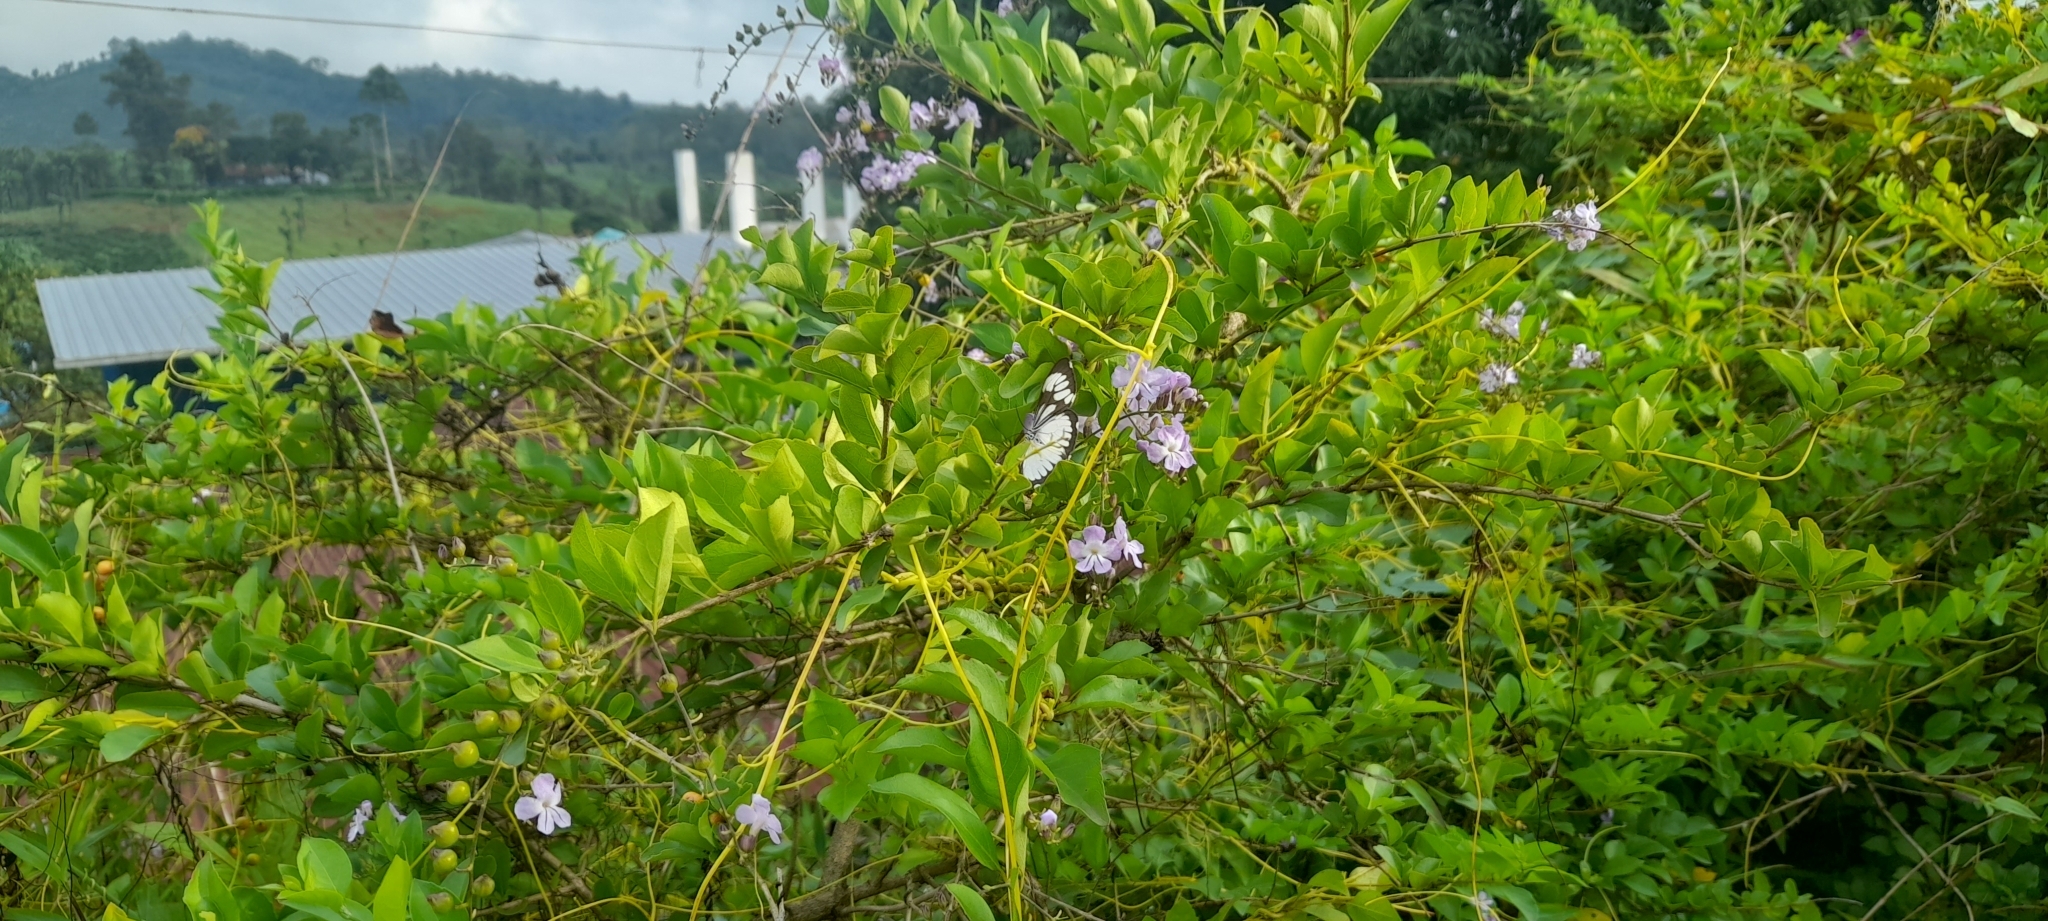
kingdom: Plantae
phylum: Tracheophyta
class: Magnoliopsida
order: Lamiales
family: Verbenaceae
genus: Duranta
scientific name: Duranta erecta
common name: Golden dewdrops
